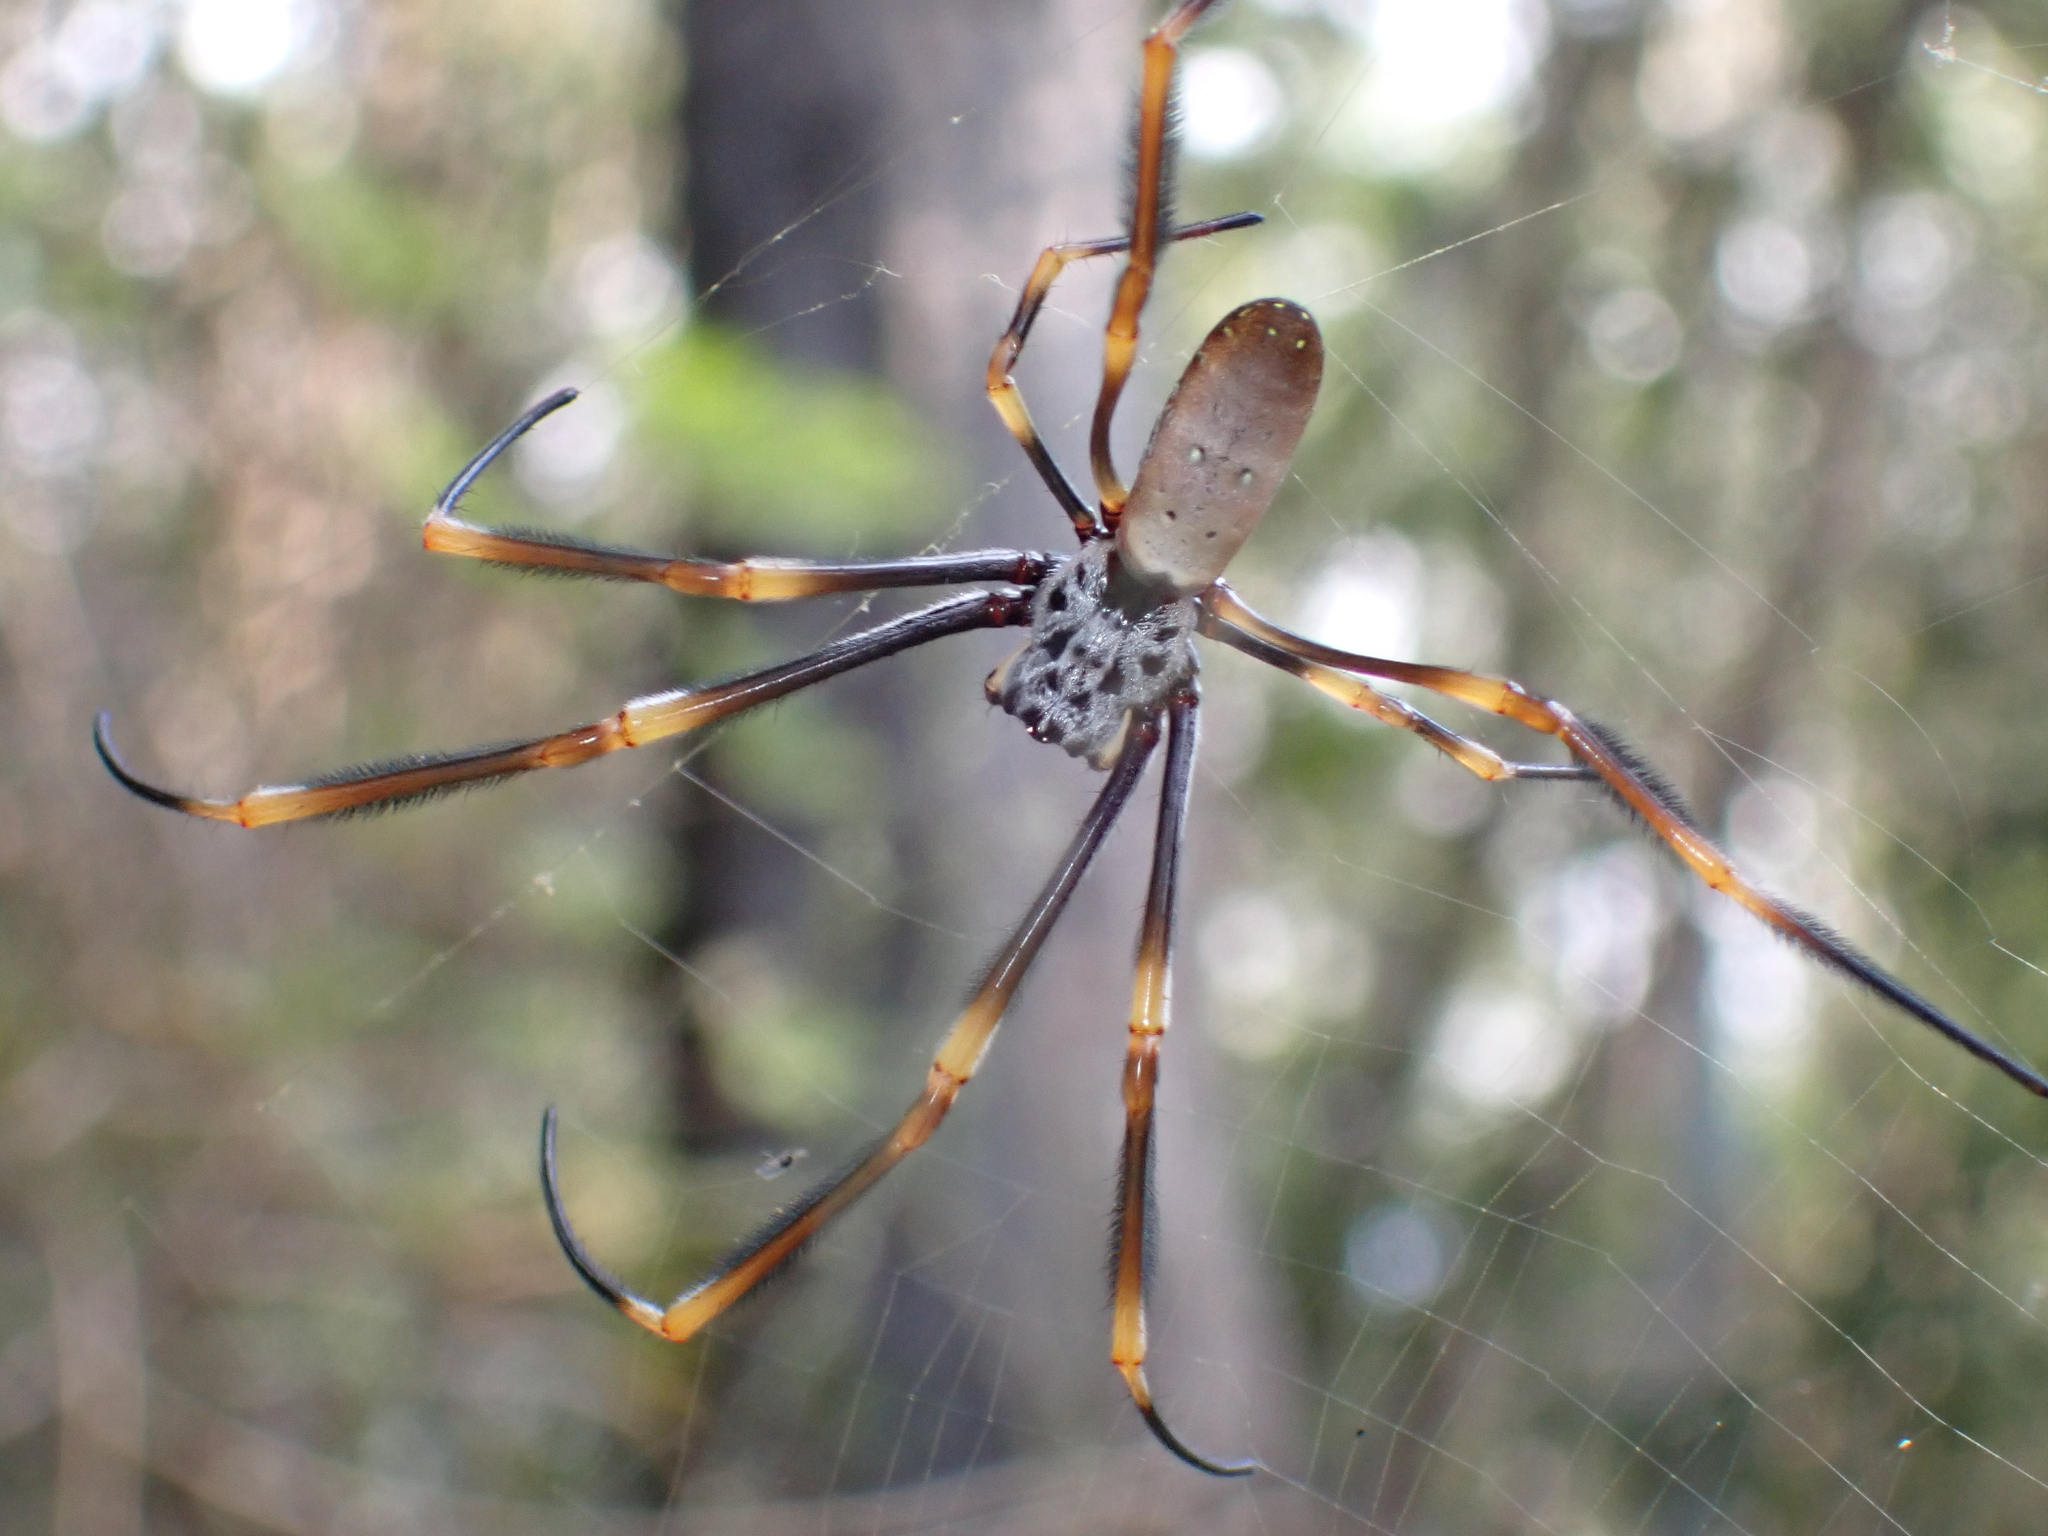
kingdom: Animalia
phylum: Arthropoda
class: Arachnida
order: Araneae
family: Araneidae
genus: Trichonephila
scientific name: Trichonephila plumipes
